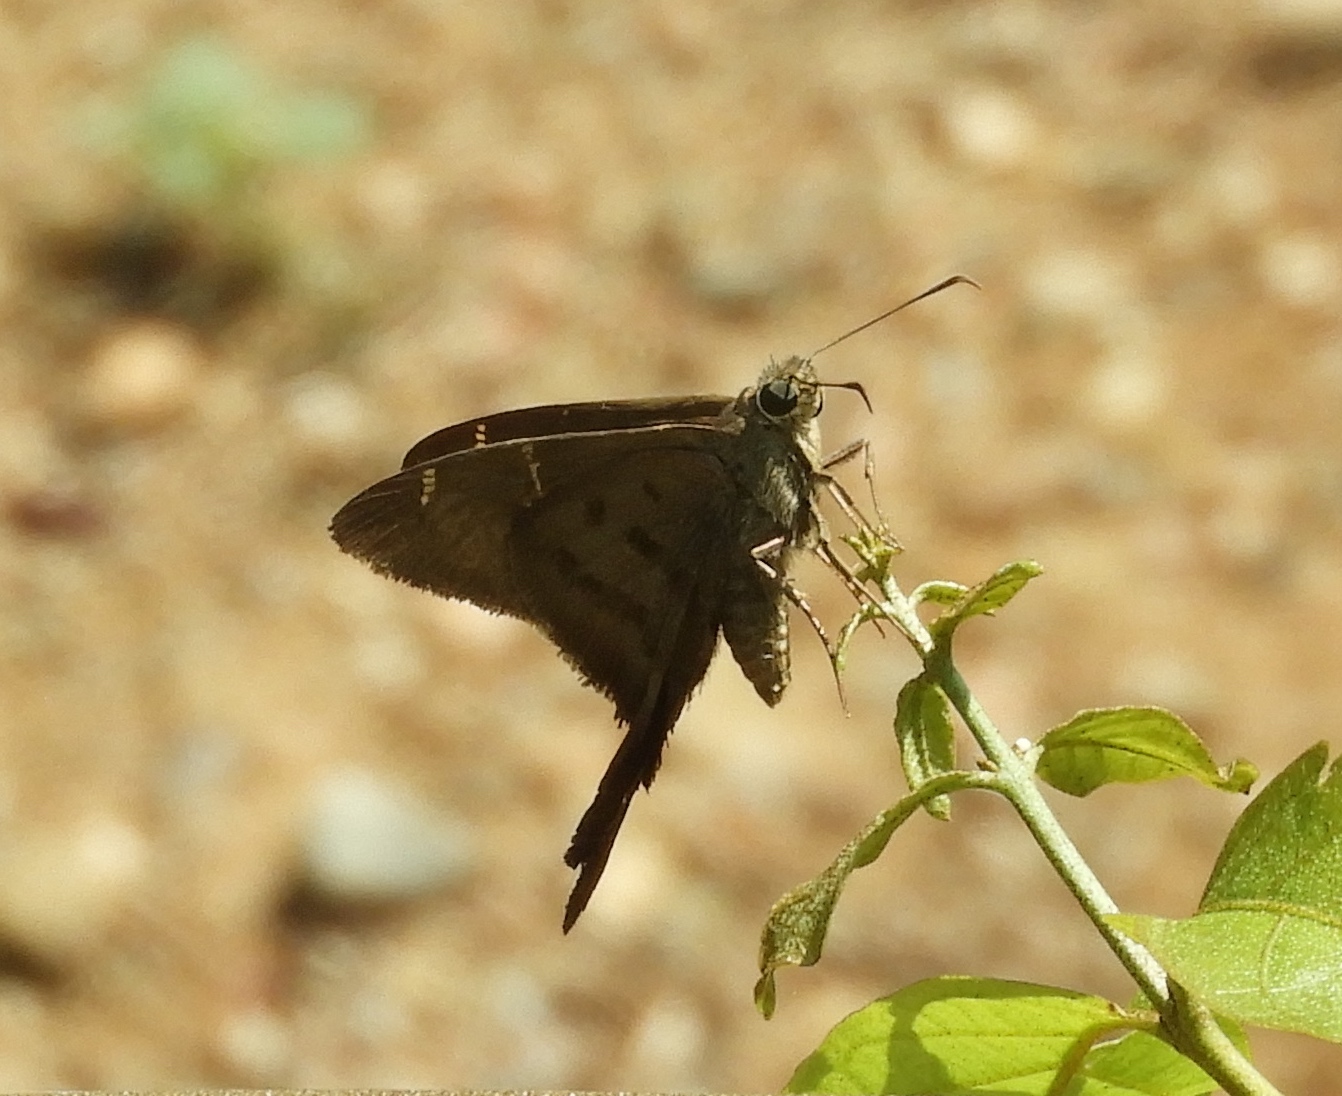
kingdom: Animalia
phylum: Arthropoda
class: Insecta
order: Lepidoptera
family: Hesperiidae
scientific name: Hesperiidae
